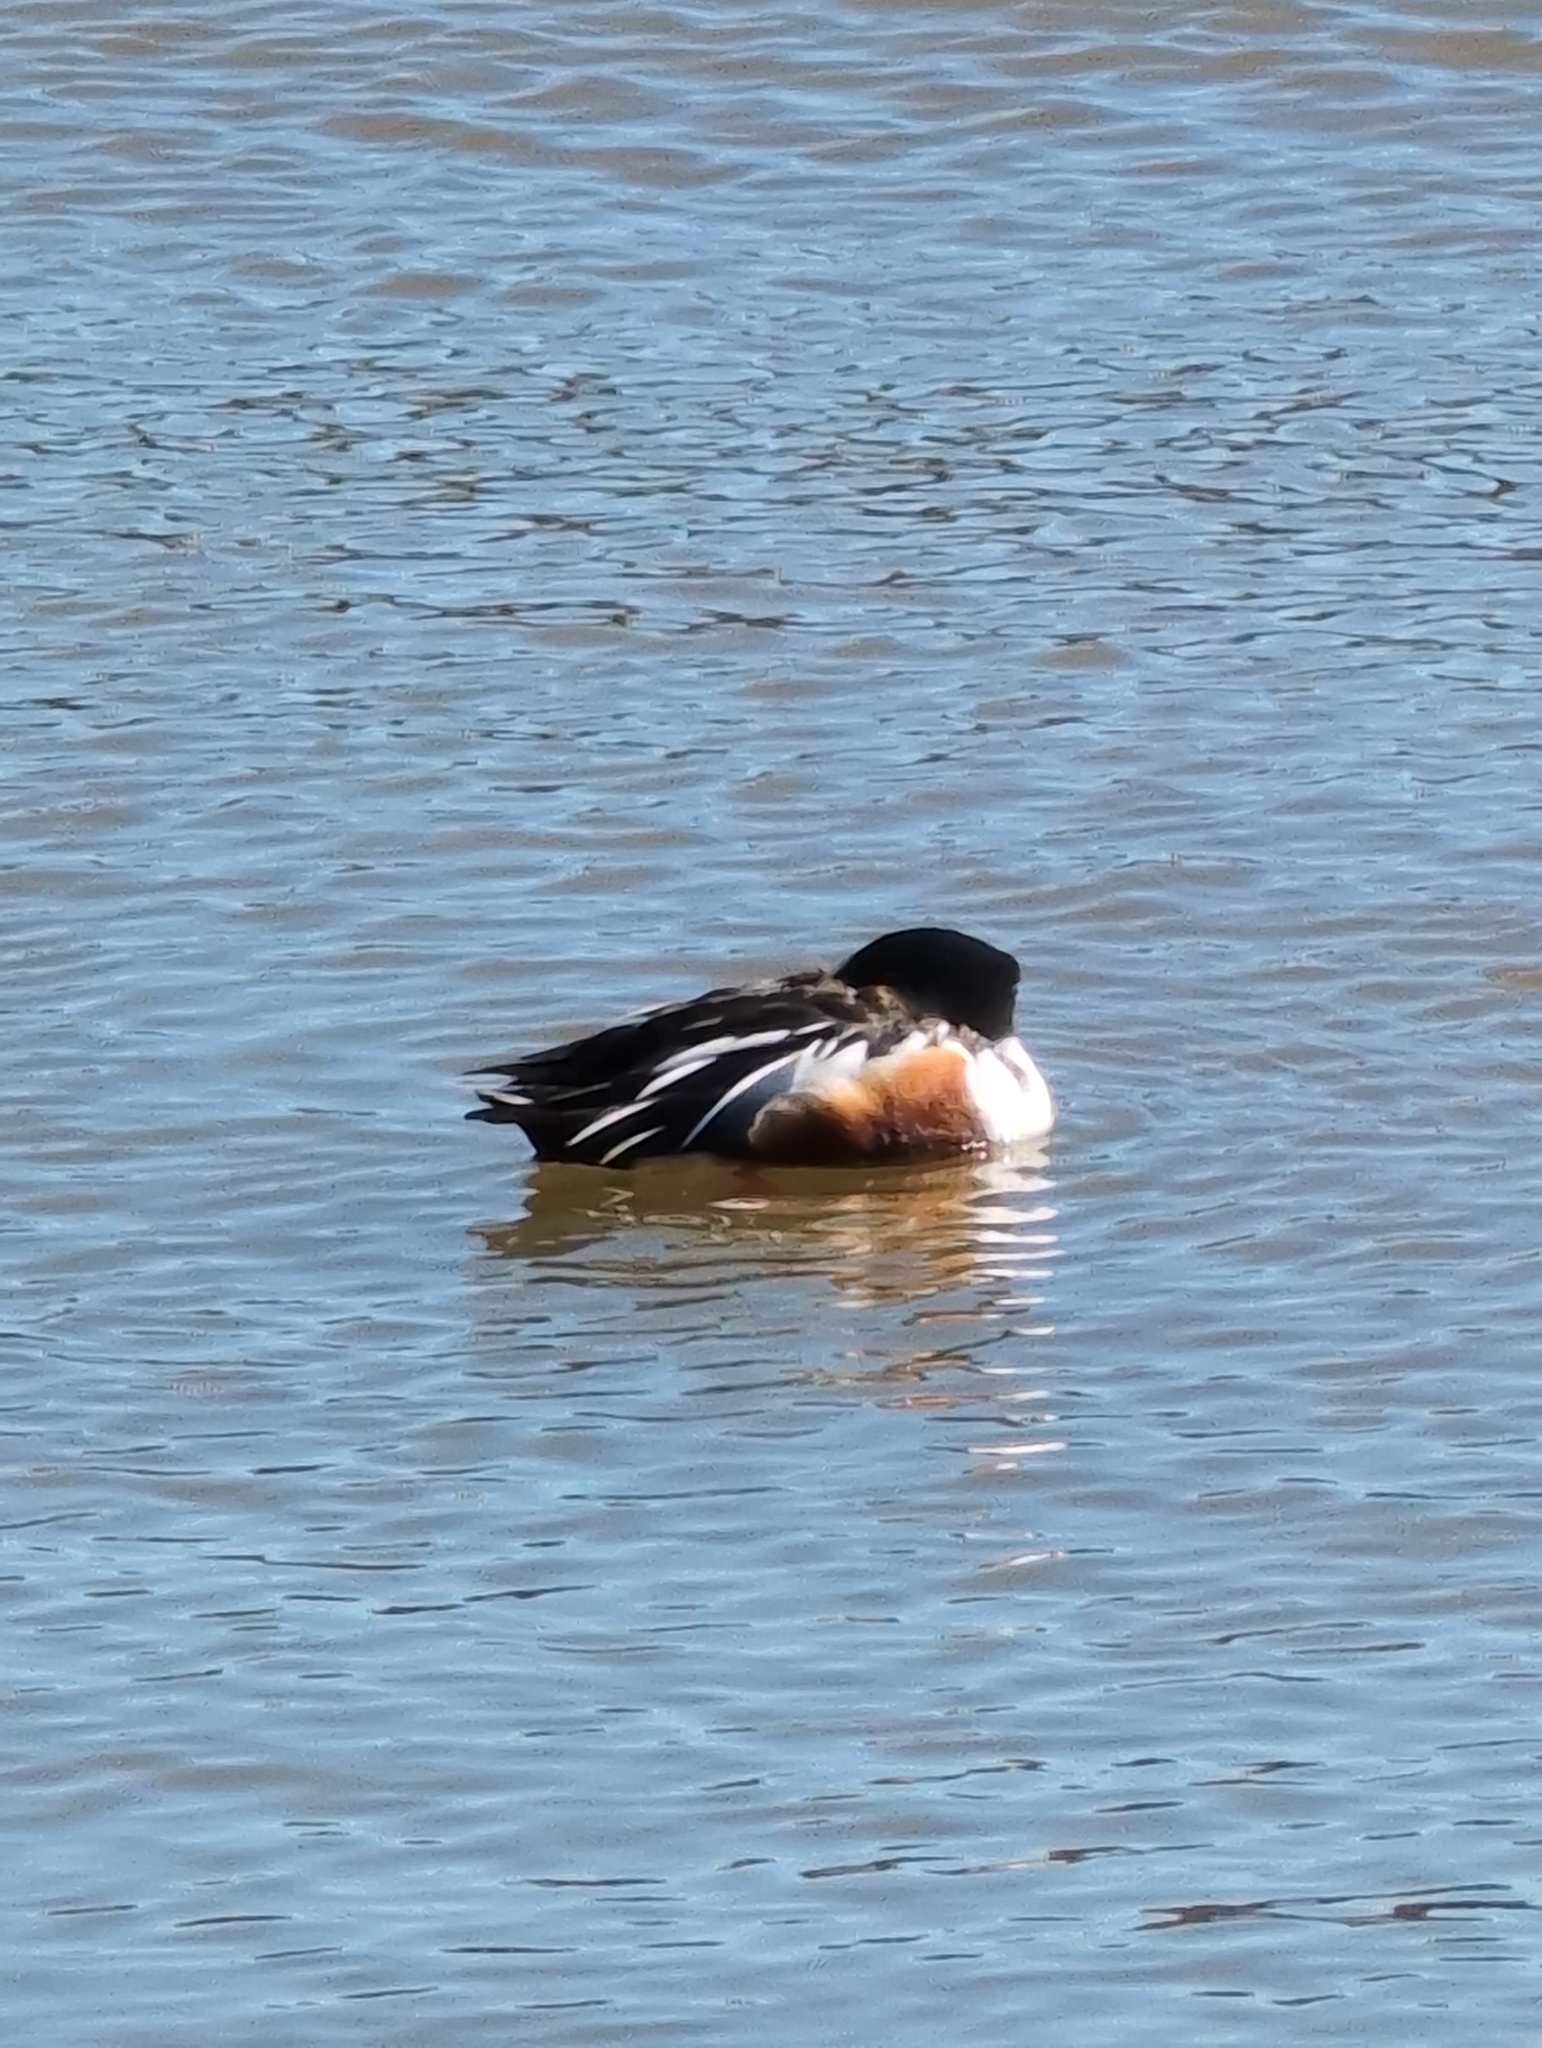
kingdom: Animalia
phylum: Chordata
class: Aves
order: Anseriformes
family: Anatidae
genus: Spatula
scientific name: Spatula clypeata
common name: Northern shoveler
